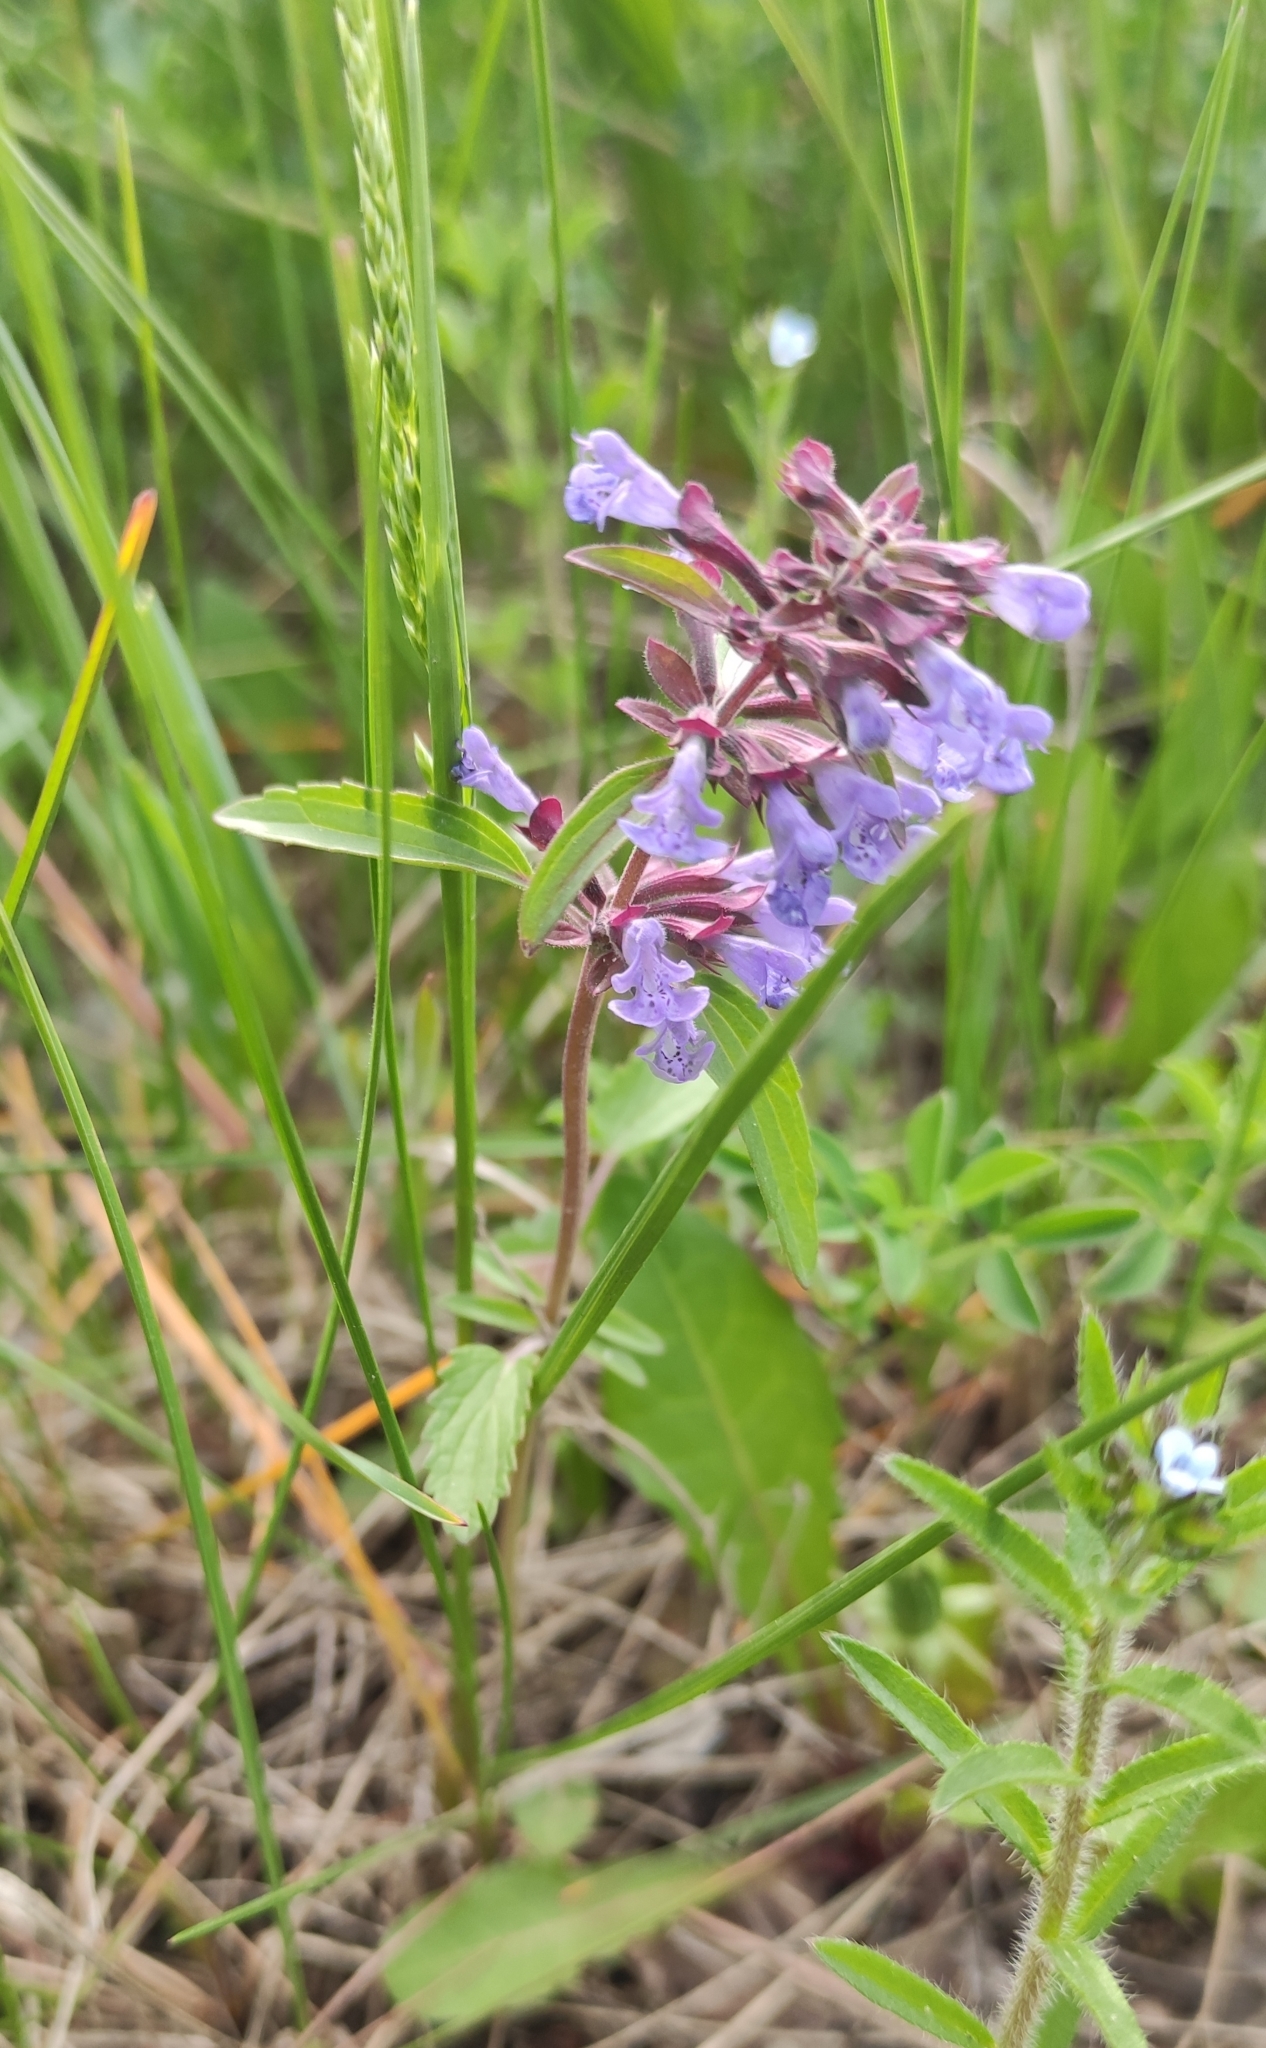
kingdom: Plantae
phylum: Tracheophyta
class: Magnoliopsida
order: Lamiales
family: Lamiaceae
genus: Dracocephalum
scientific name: Dracocephalum nutans
